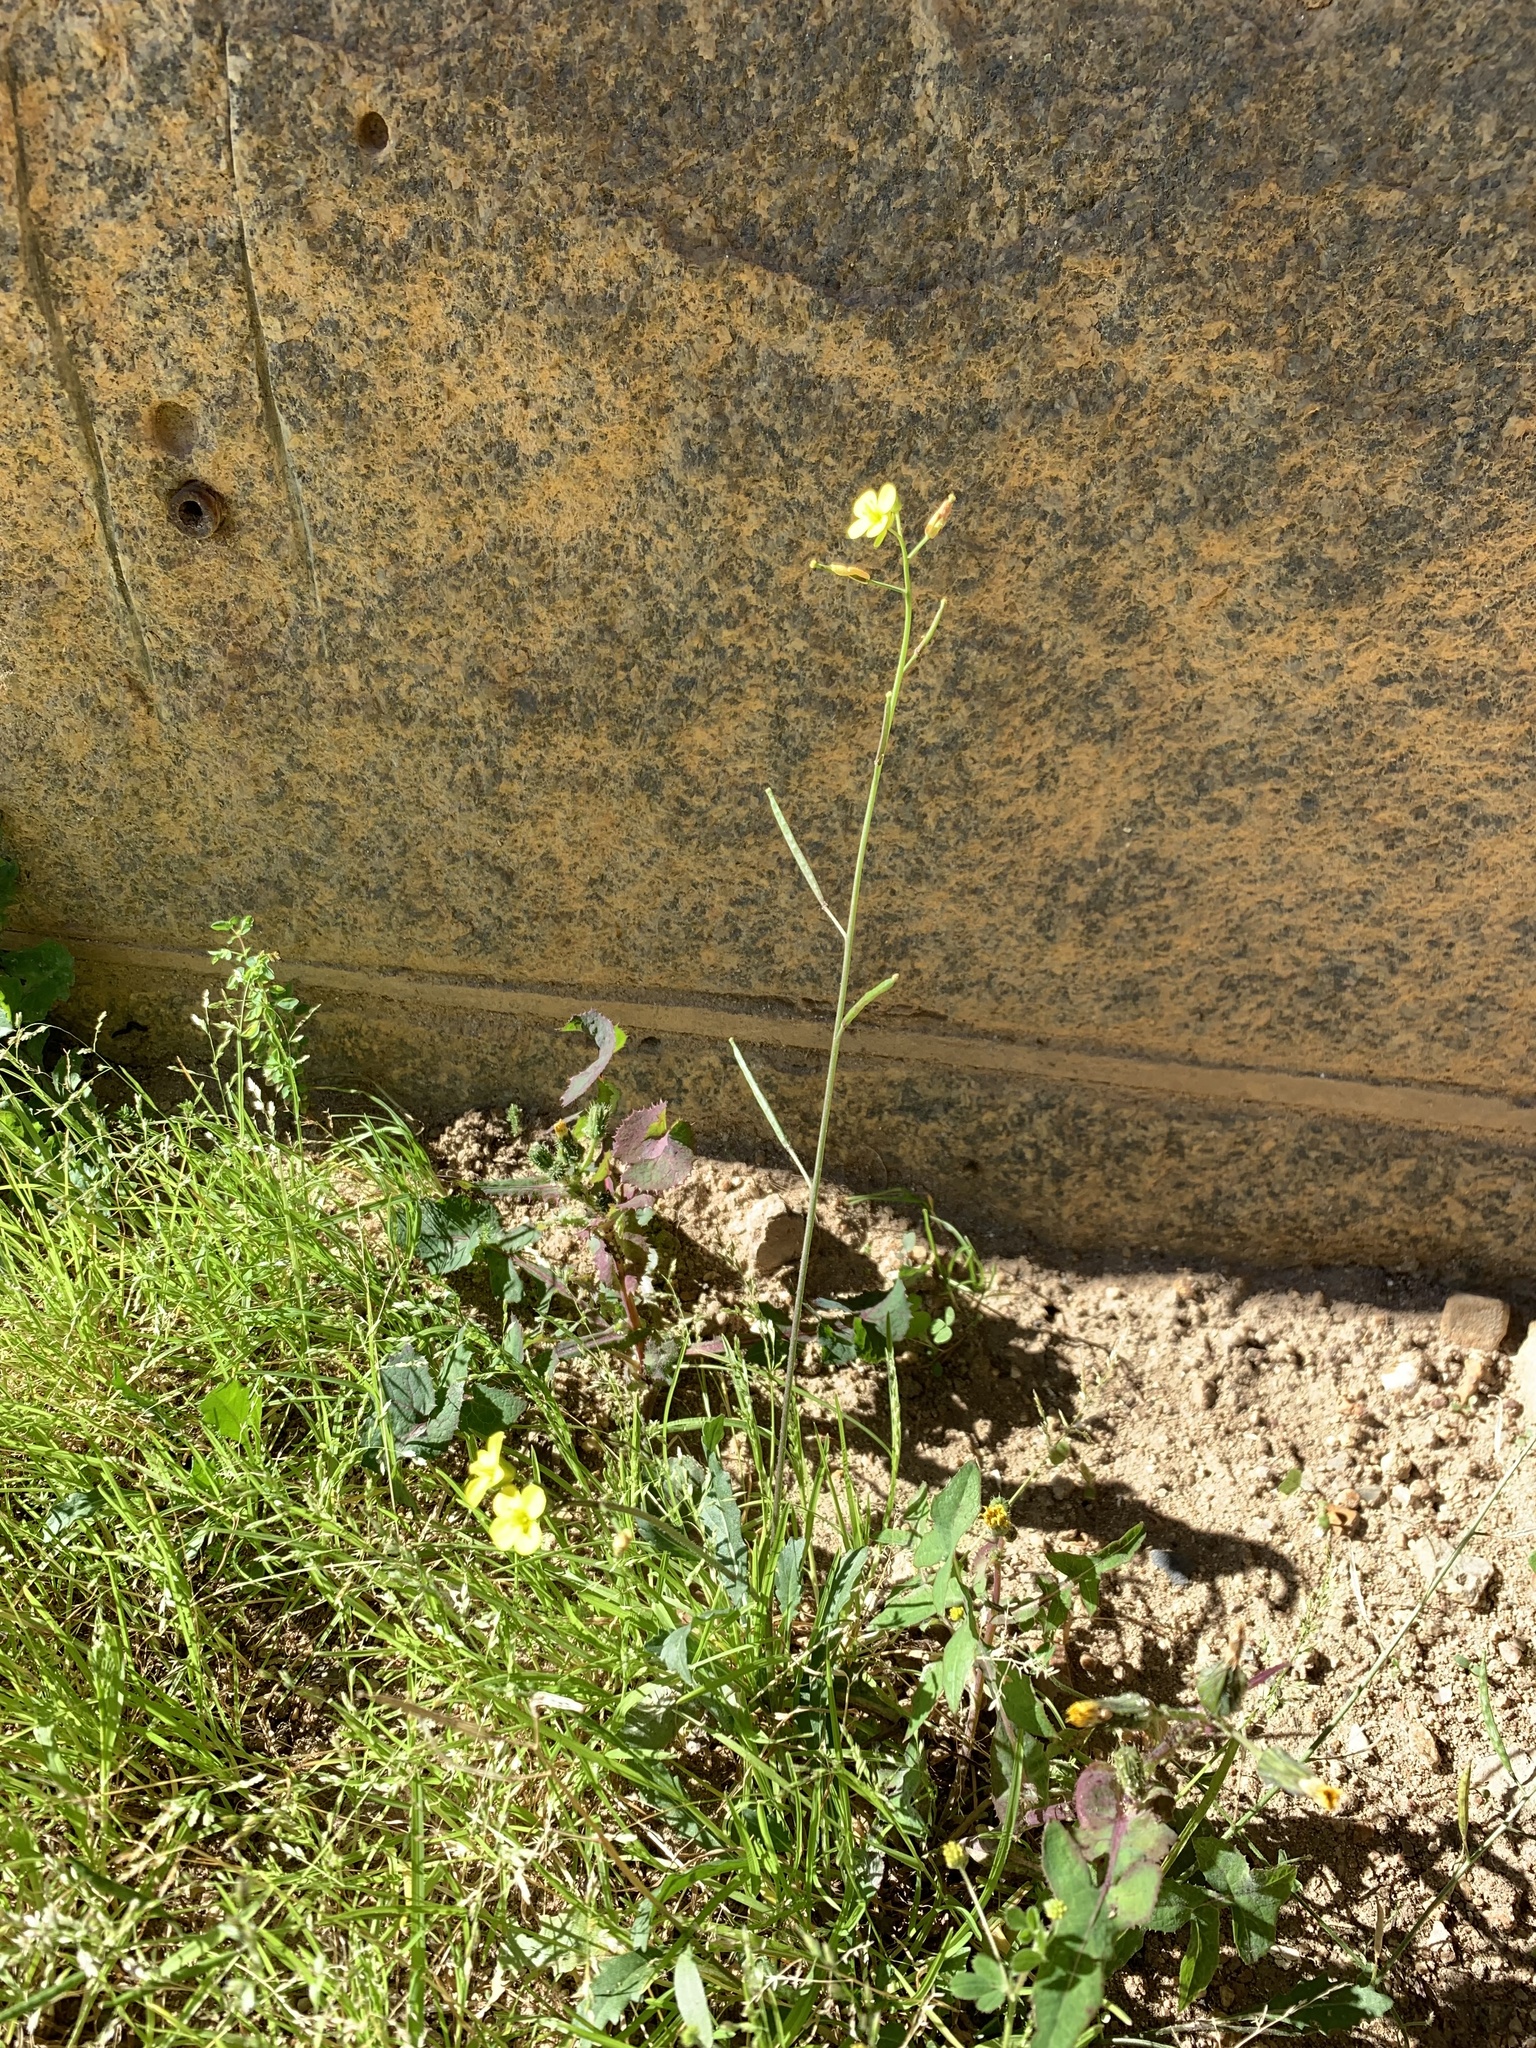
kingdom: Plantae
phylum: Tracheophyta
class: Magnoliopsida
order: Brassicales
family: Brassicaceae
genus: Diplotaxis
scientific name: Diplotaxis muralis
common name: Annual wall-rocket
